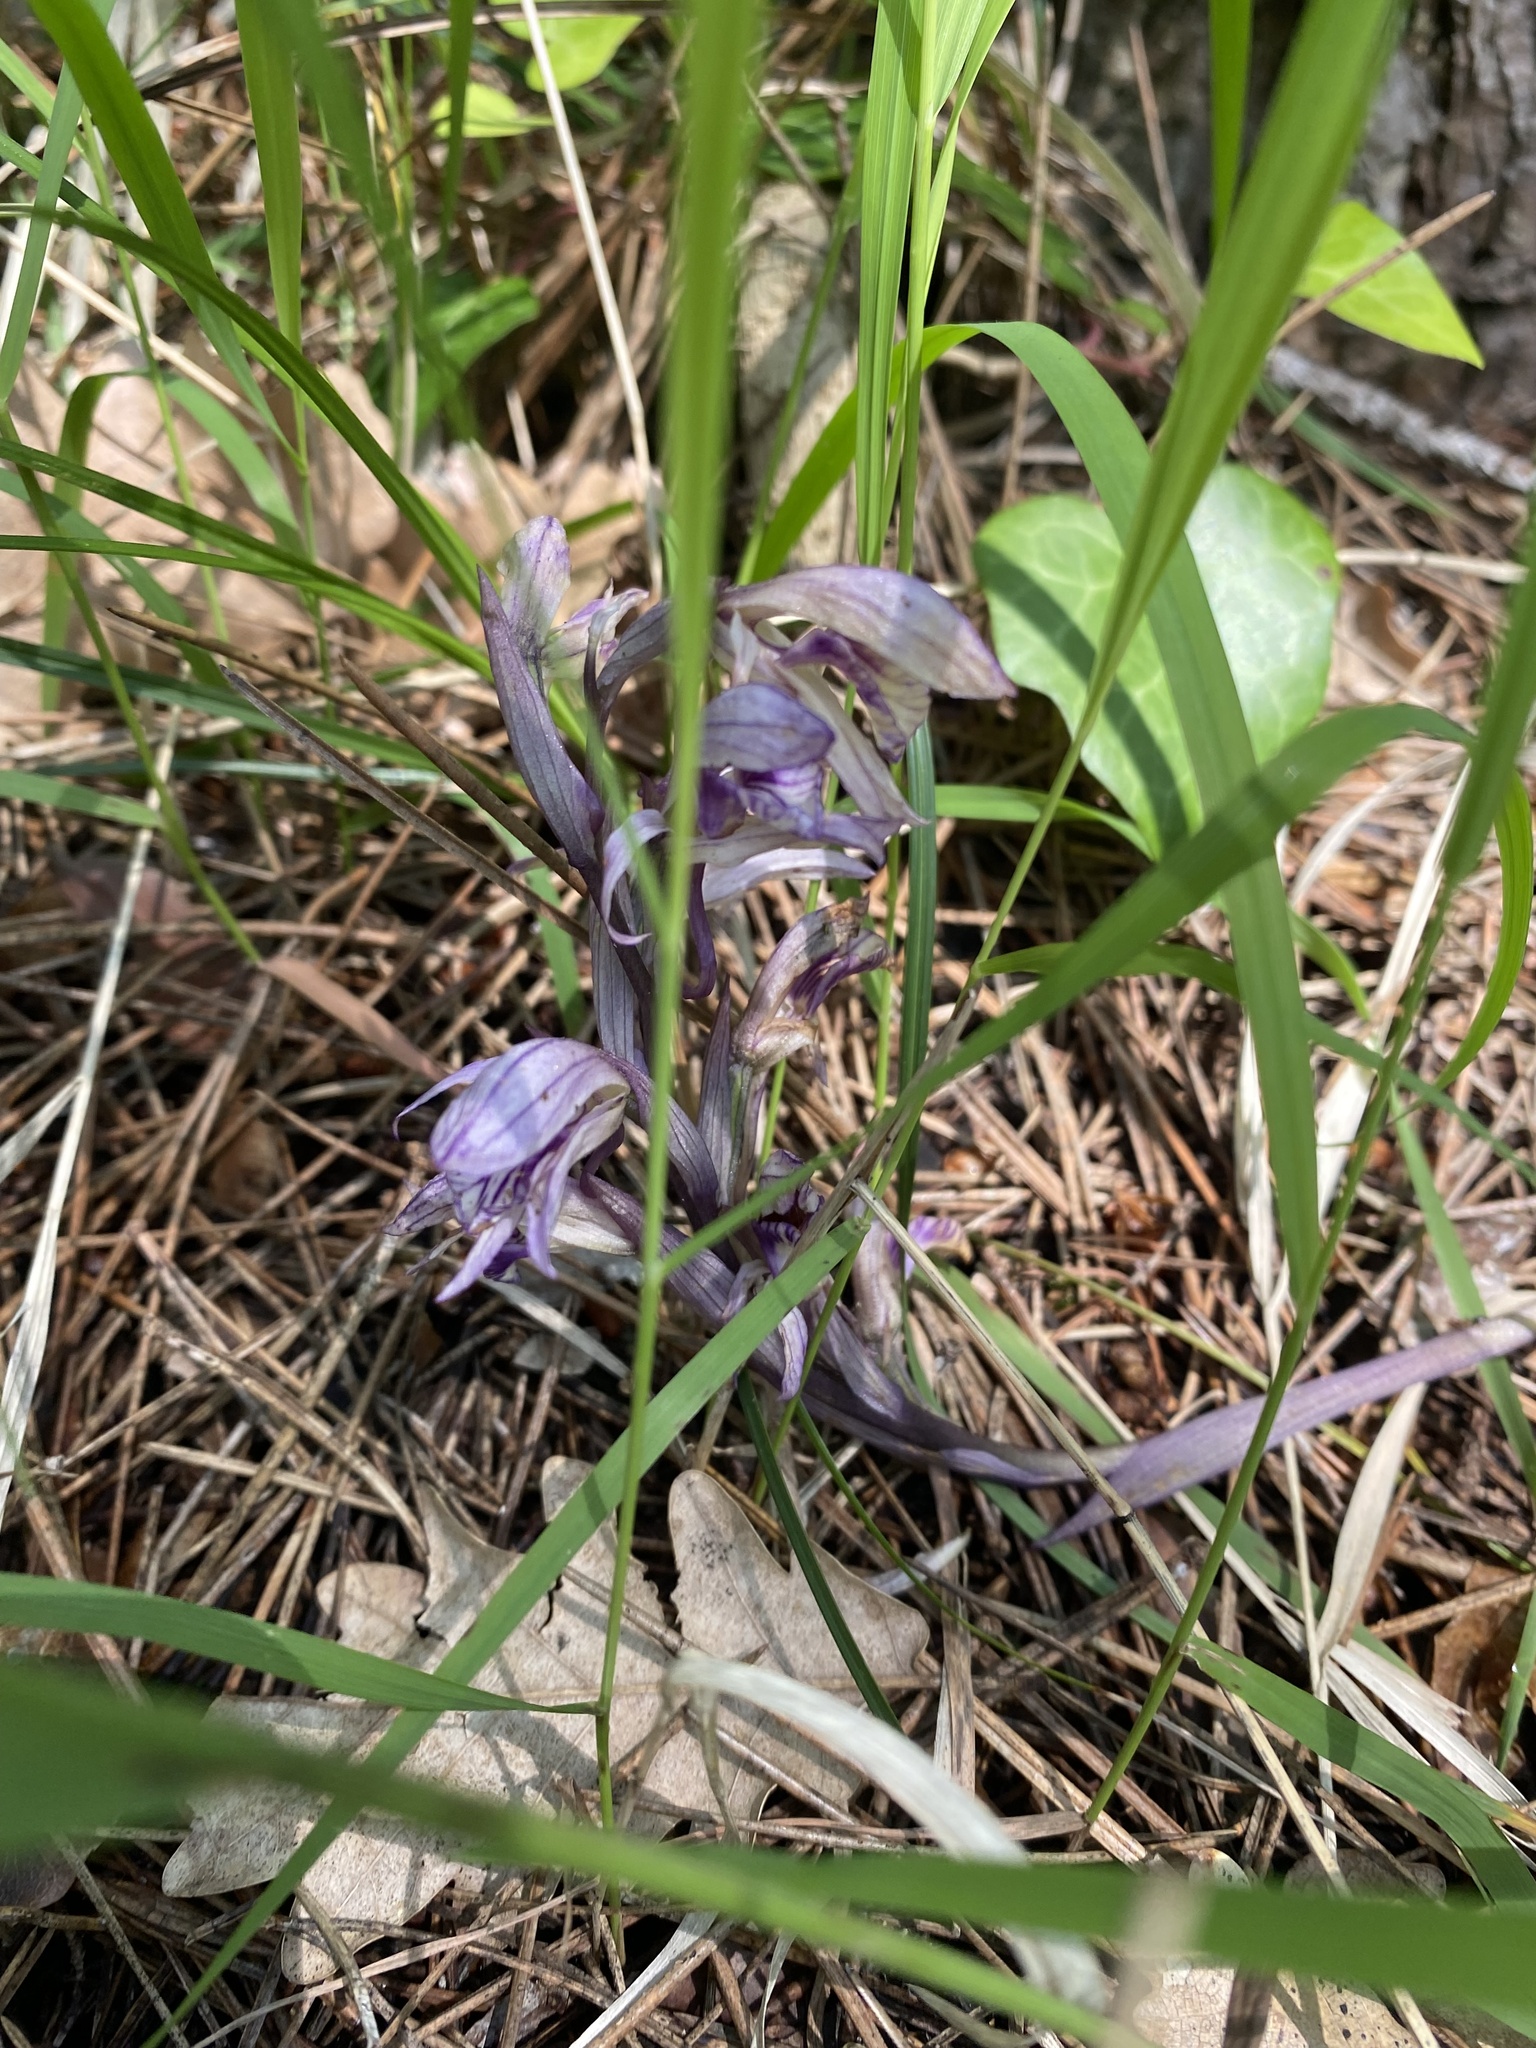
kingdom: Plantae
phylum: Tracheophyta
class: Liliopsida
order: Asparagales
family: Orchidaceae
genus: Limodorum
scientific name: Limodorum abortivum
